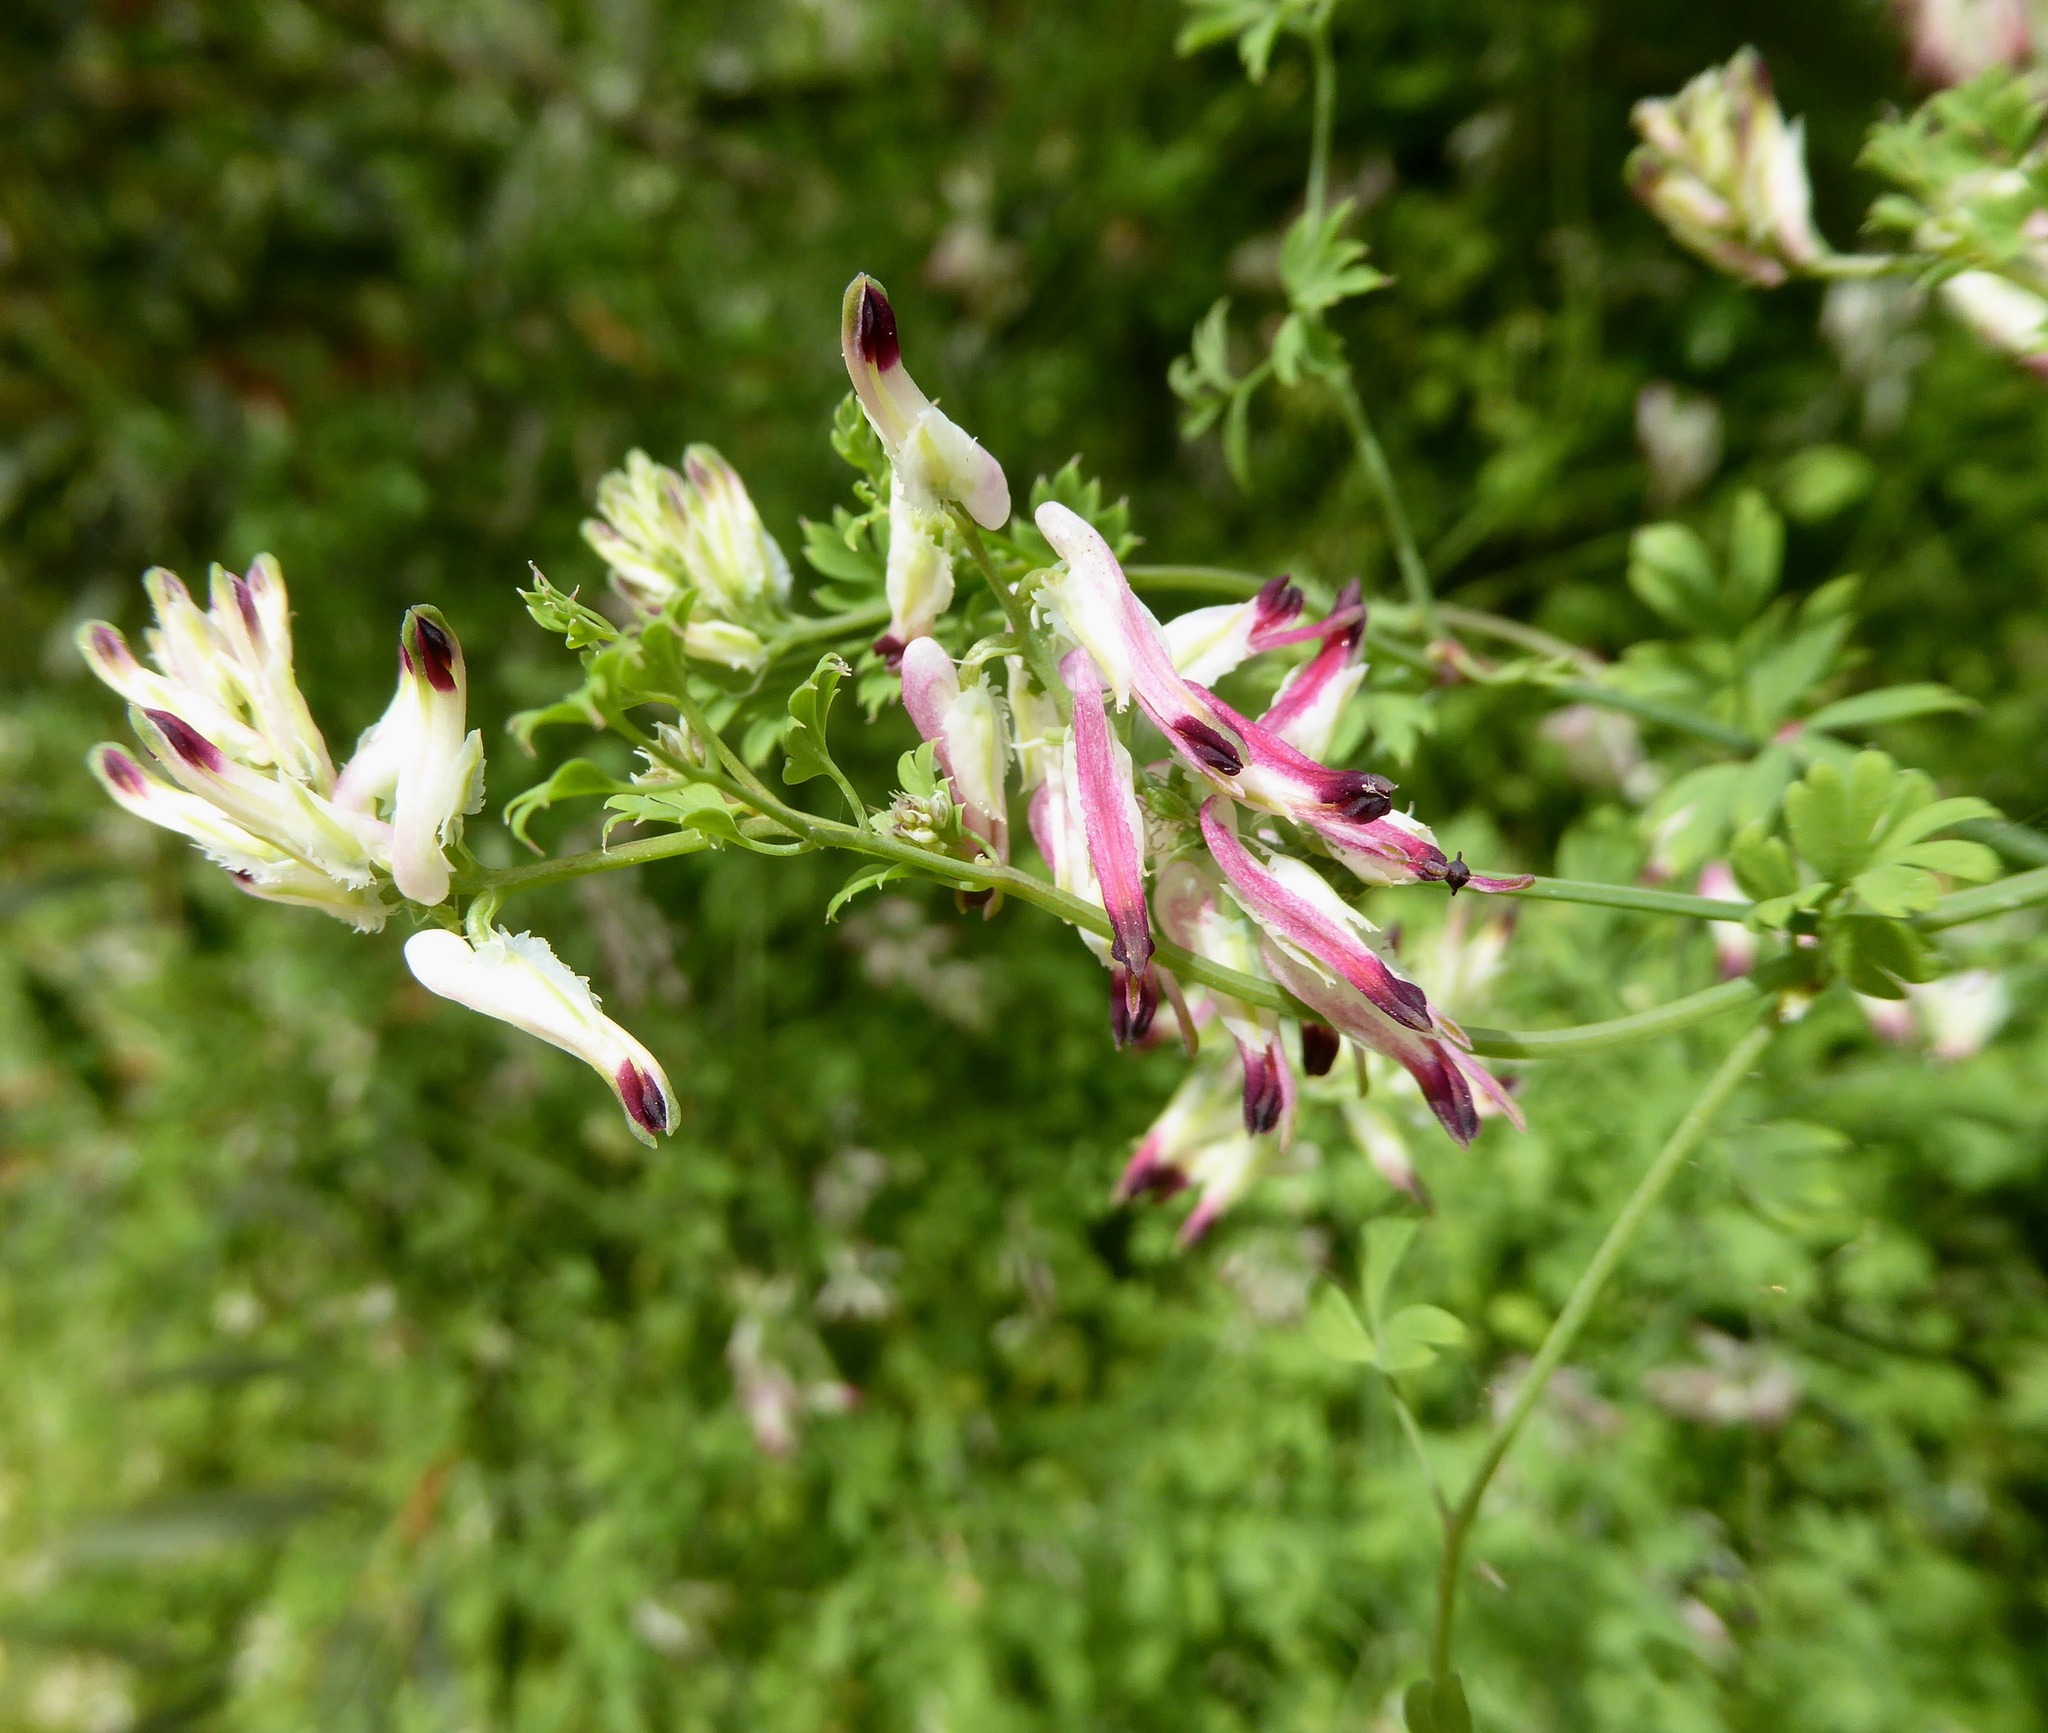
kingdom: Plantae
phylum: Tracheophyta
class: Magnoliopsida
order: Ranunculales
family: Papaveraceae
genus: Fumaria
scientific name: Fumaria capreolata
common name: White ramping-fumitory
